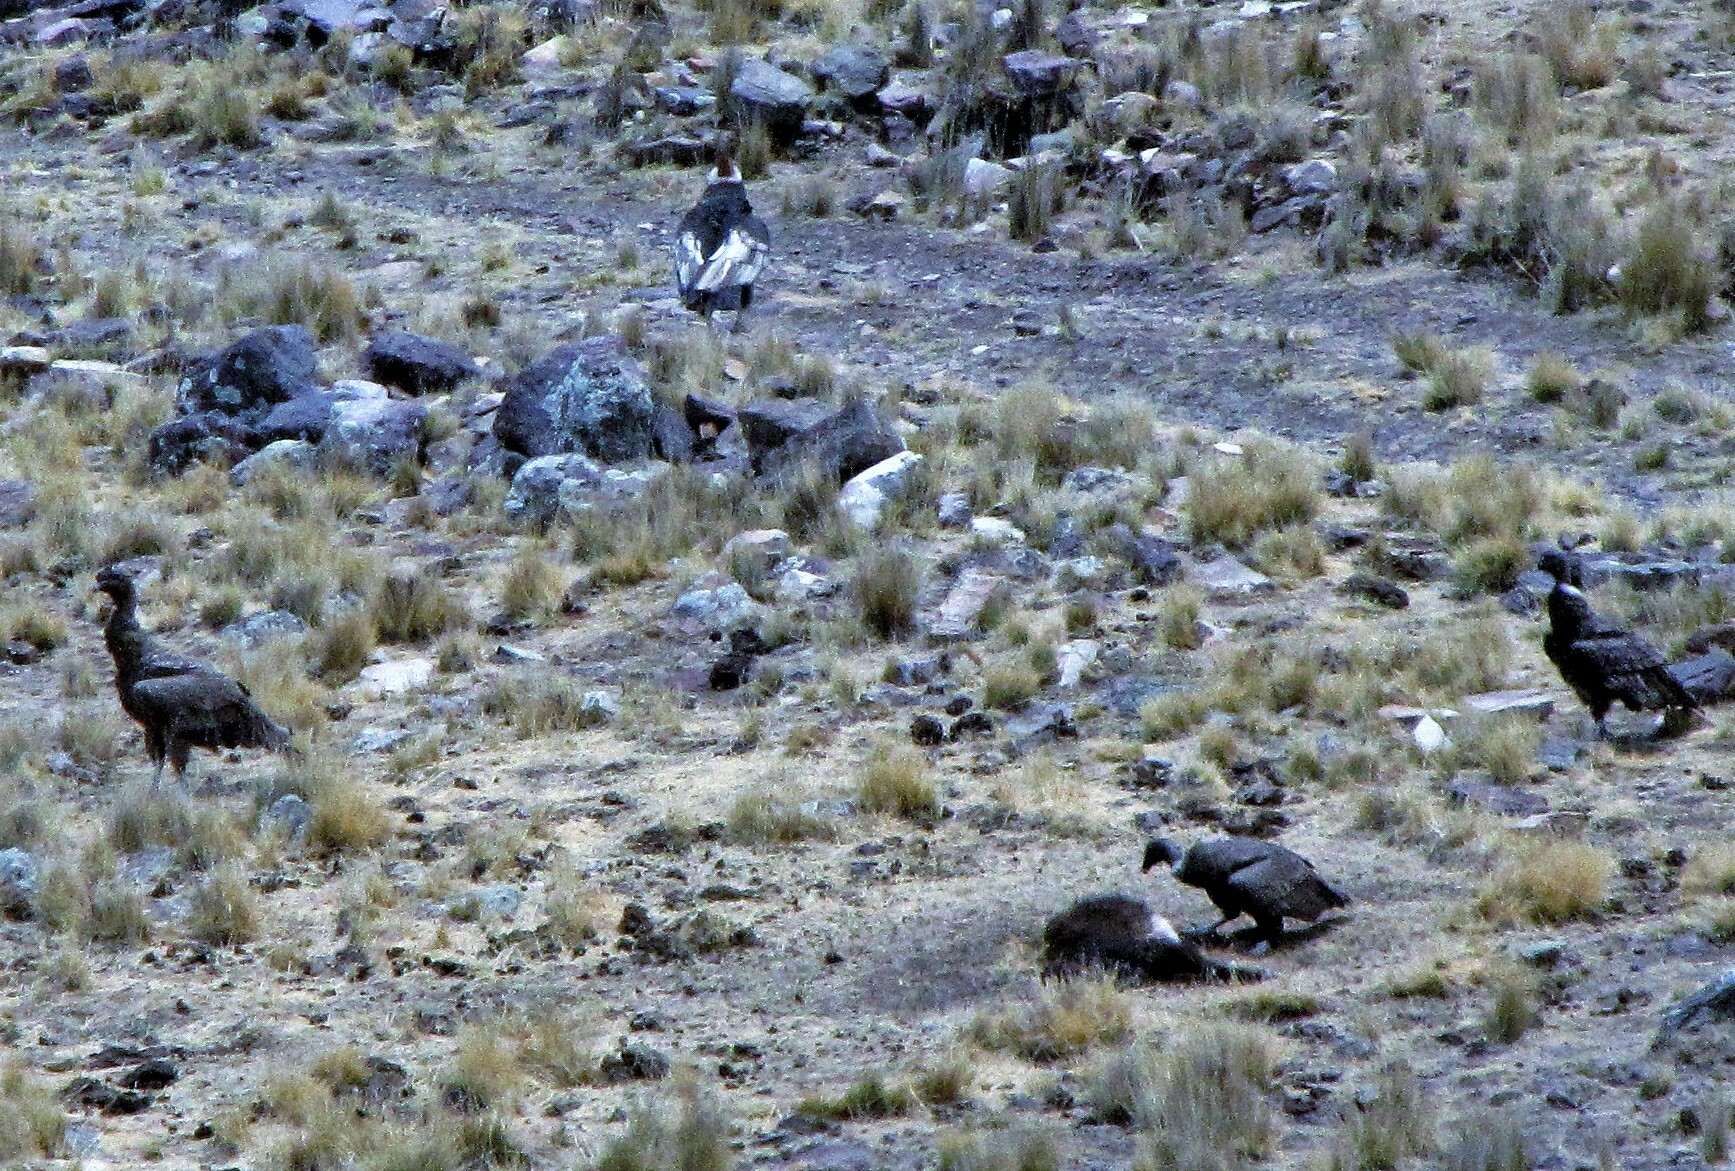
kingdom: Animalia
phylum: Chordata
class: Aves
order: Accipitriformes
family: Cathartidae
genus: Vultur
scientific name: Vultur gryphus
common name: Andean condor
